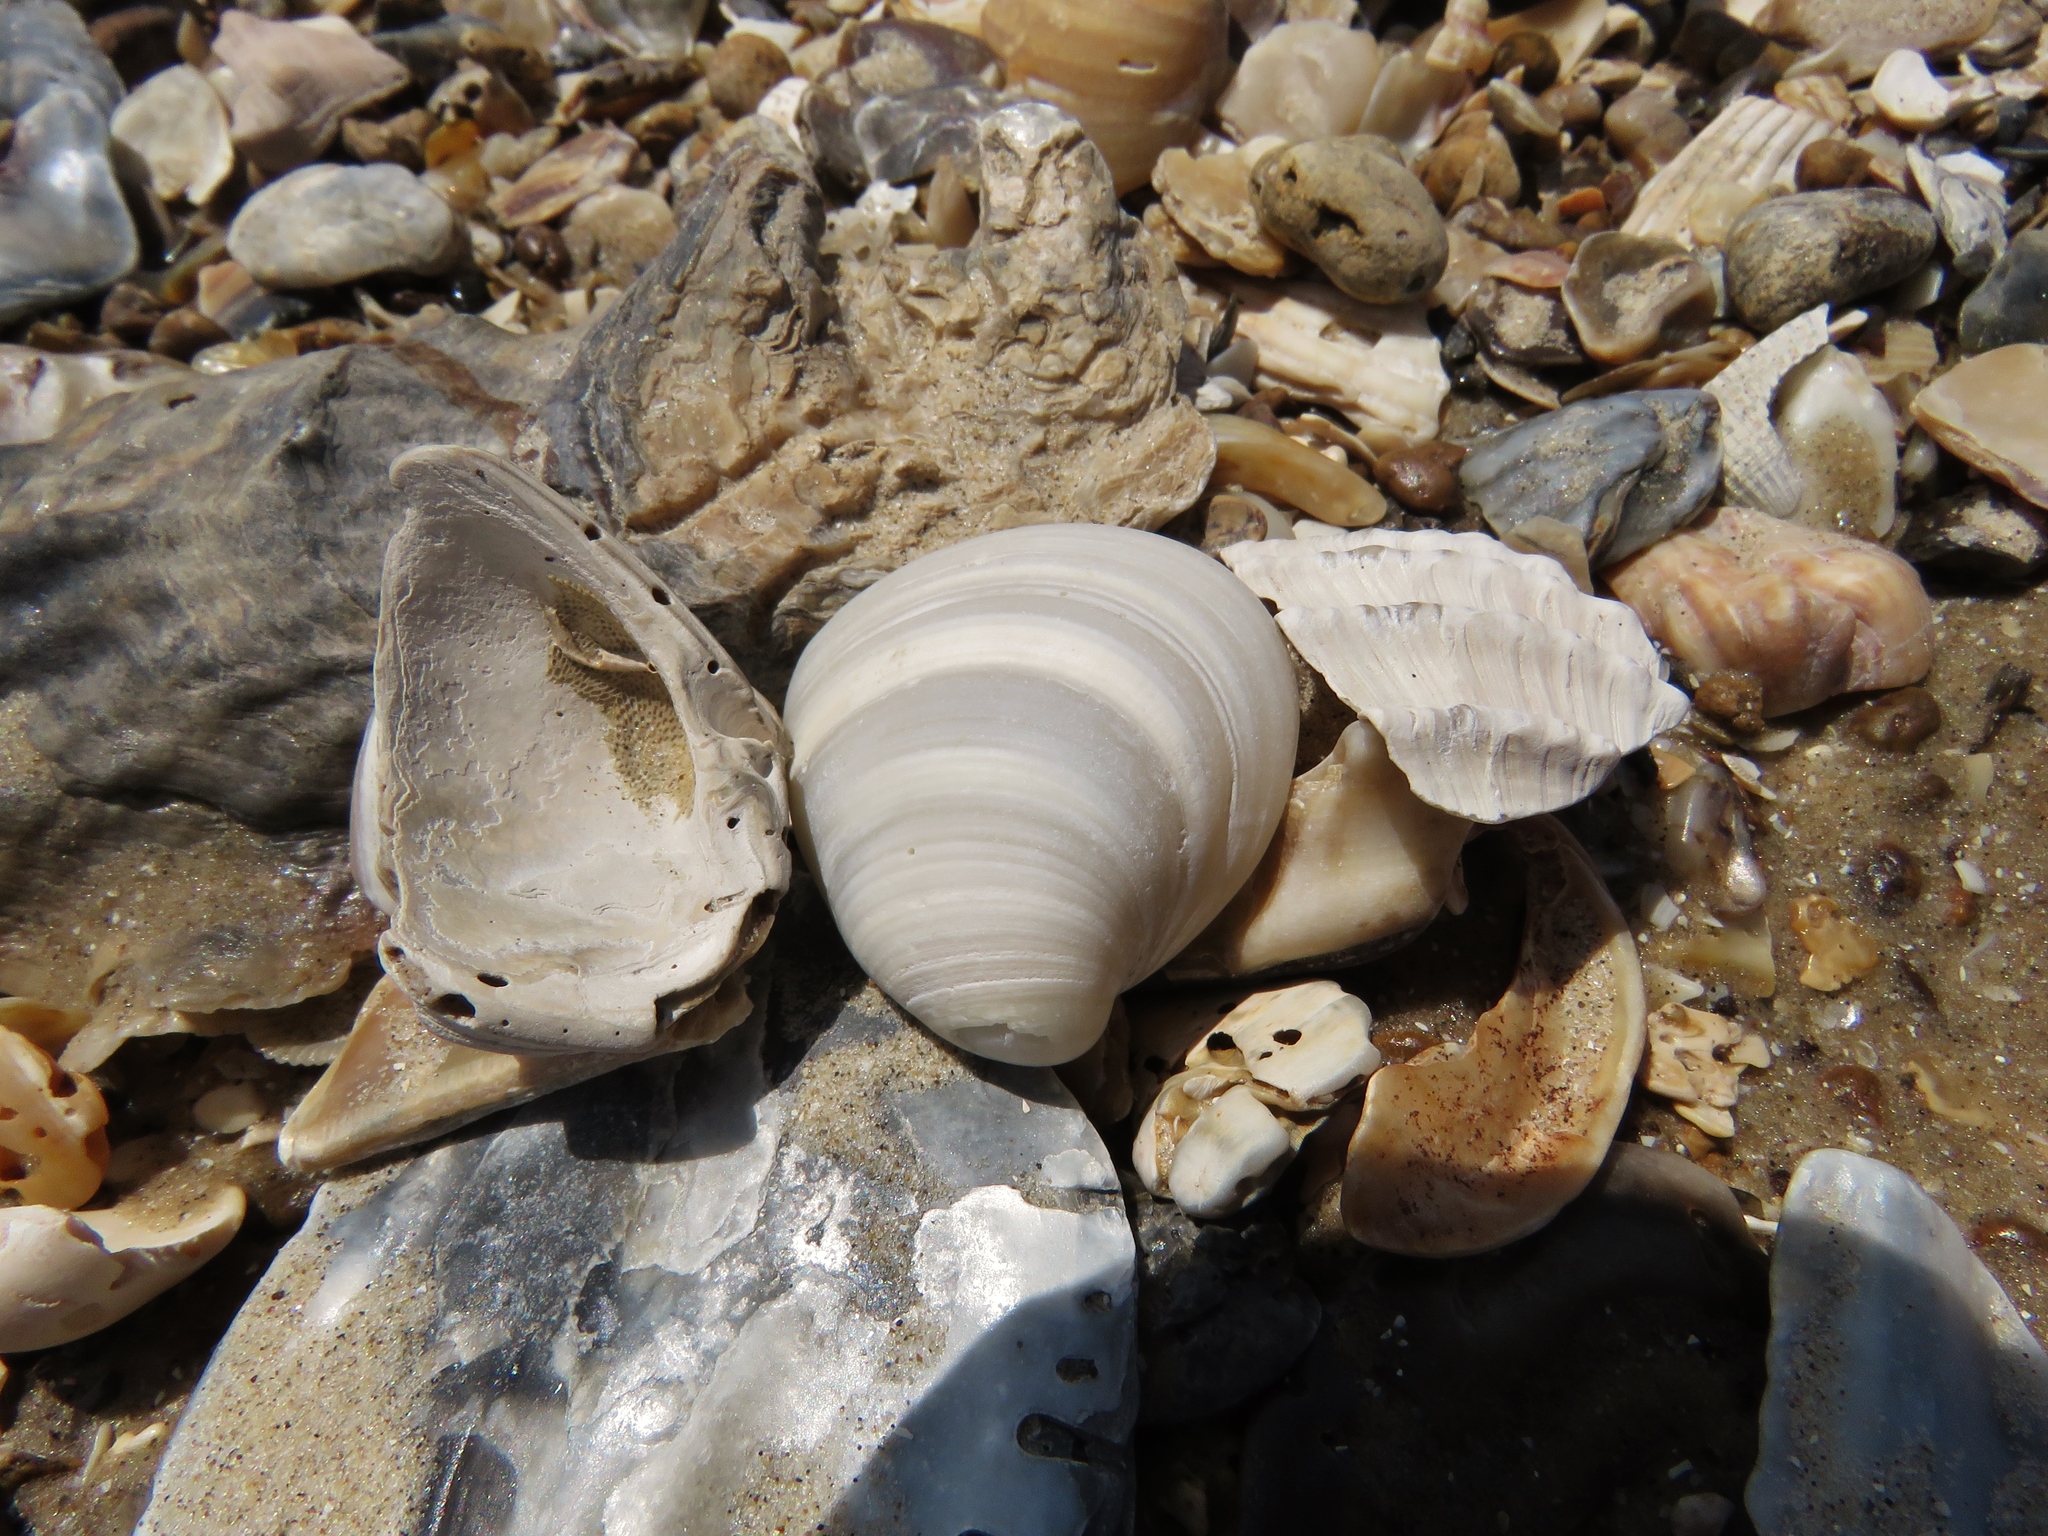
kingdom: Animalia
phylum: Mollusca
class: Bivalvia
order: Venerida
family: Mactridae
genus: Rangia
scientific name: Rangia cuneata
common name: Atlantic rangia
